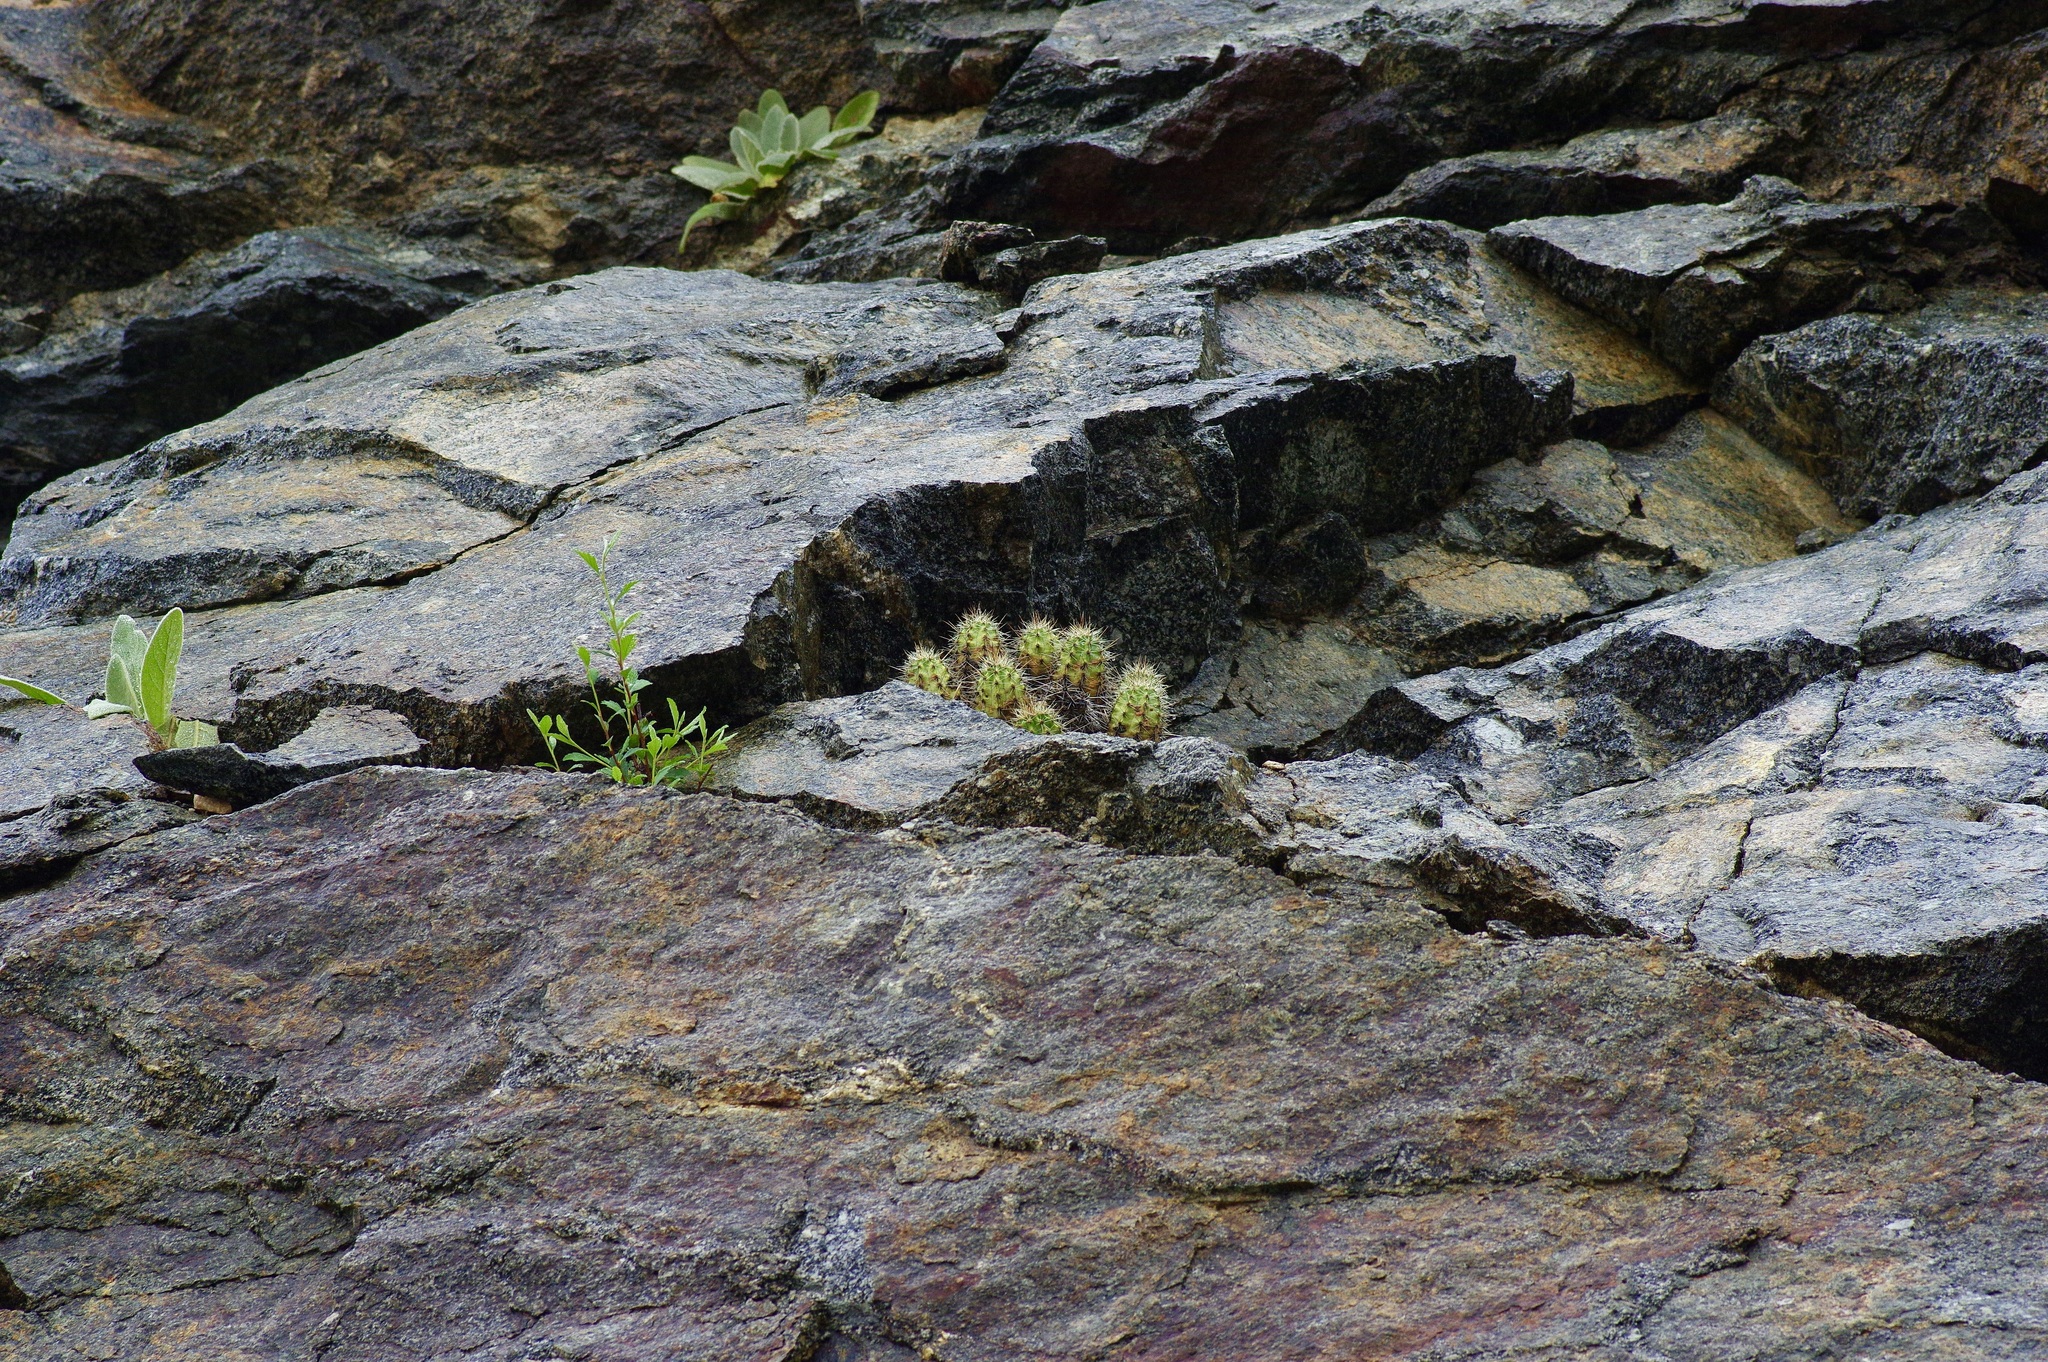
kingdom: Plantae
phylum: Tracheophyta
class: Magnoliopsida
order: Caryophyllales
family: Cactaceae
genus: Echinocereus
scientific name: Echinocereus coccineus
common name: Scarlet hedgehog cactus
